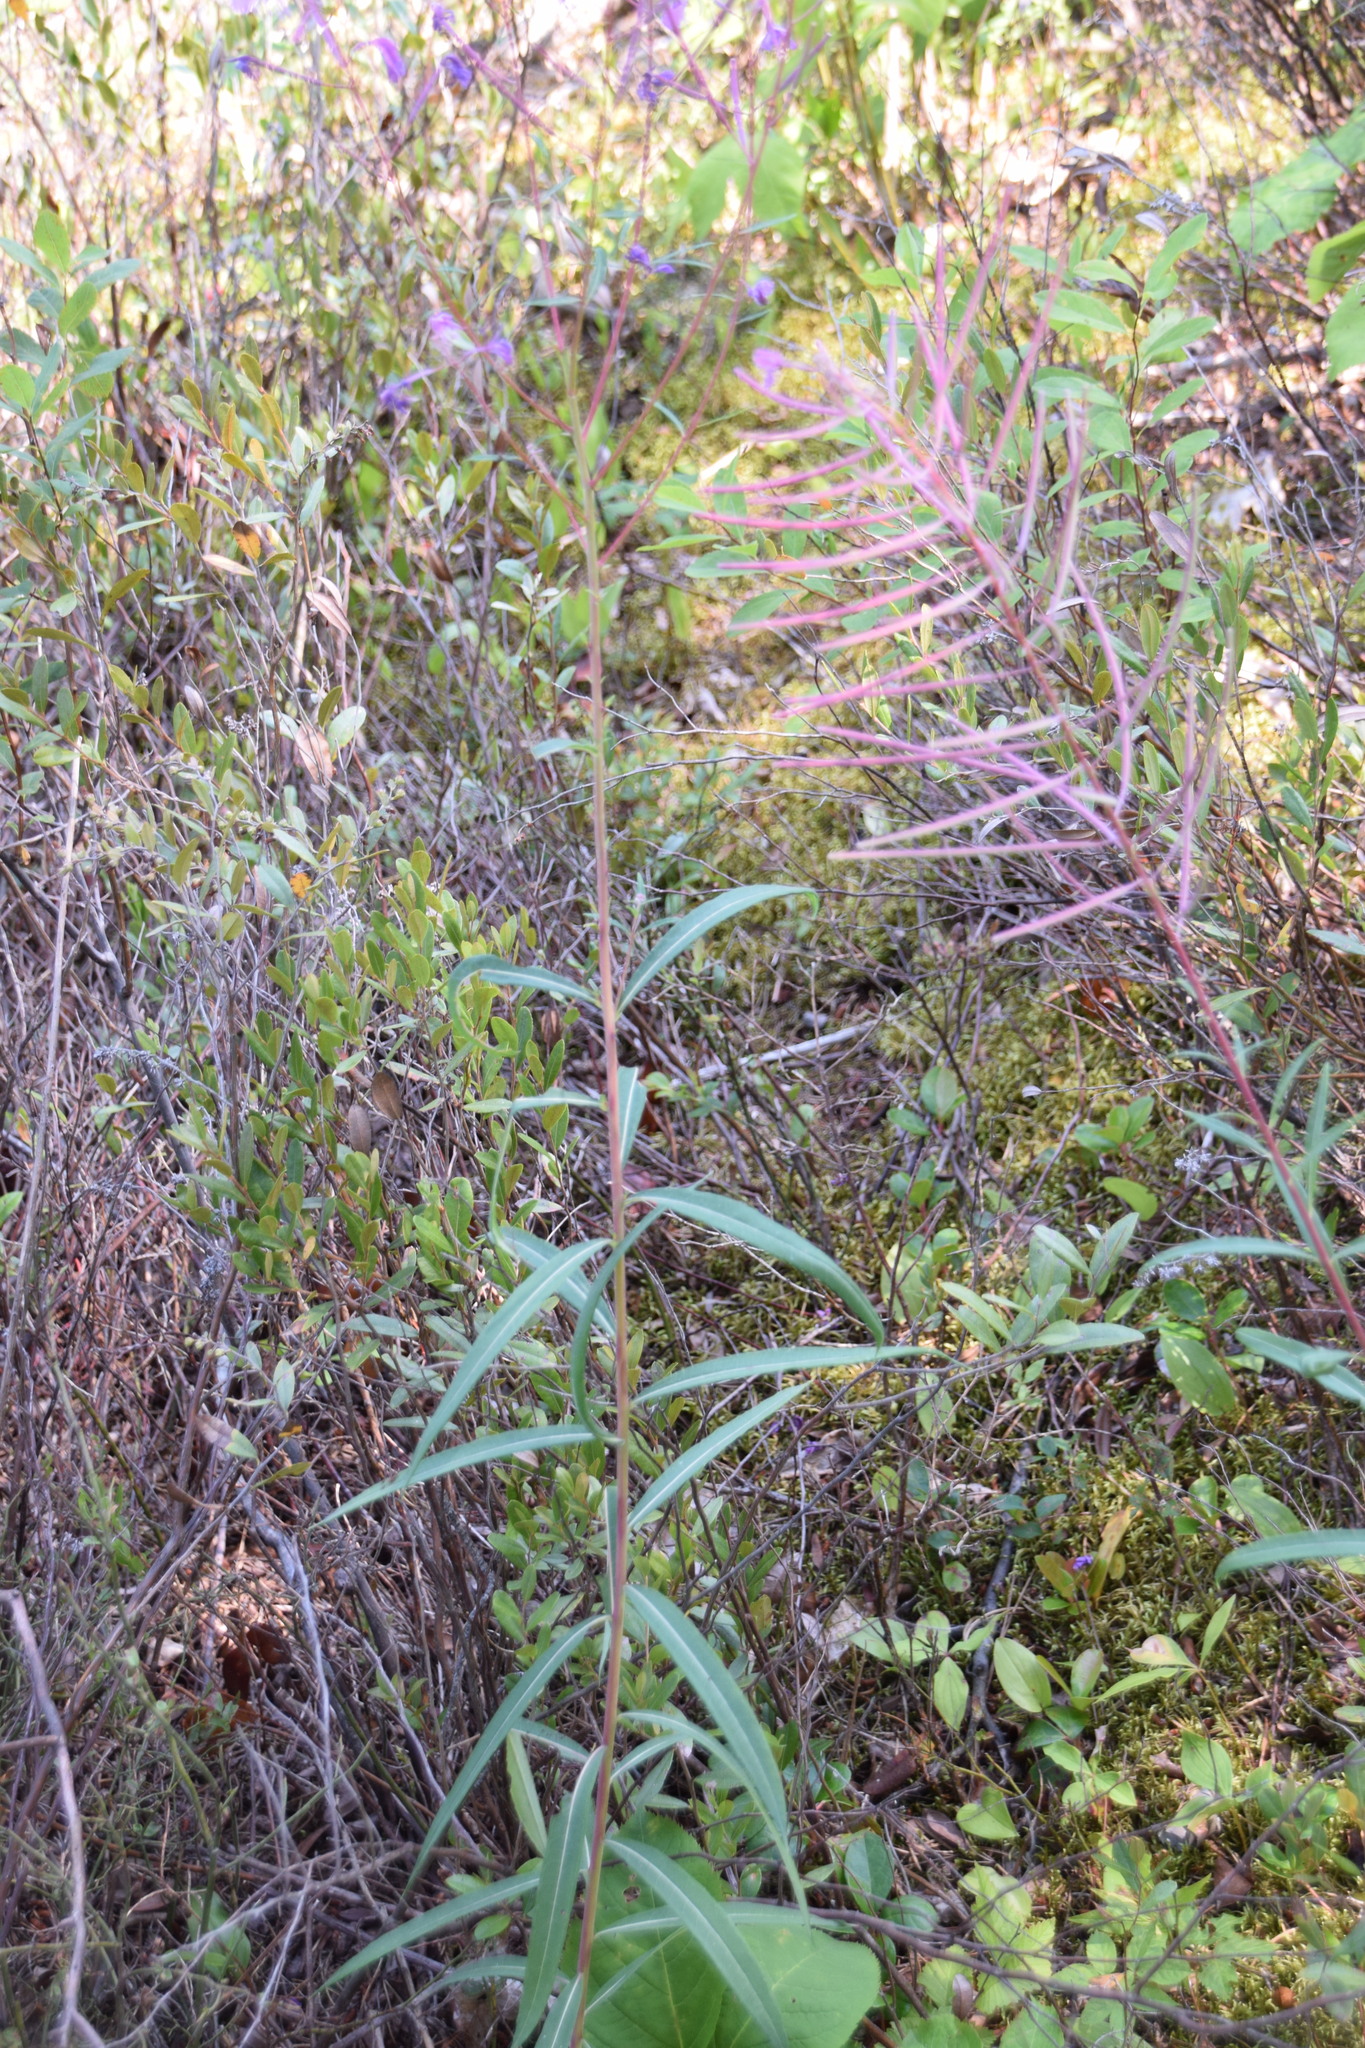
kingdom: Plantae
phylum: Tracheophyta
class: Magnoliopsida
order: Myrtales
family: Onagraceae
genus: Chamaenerion
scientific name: Chamaenerion angustifolium
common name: Fireweed
